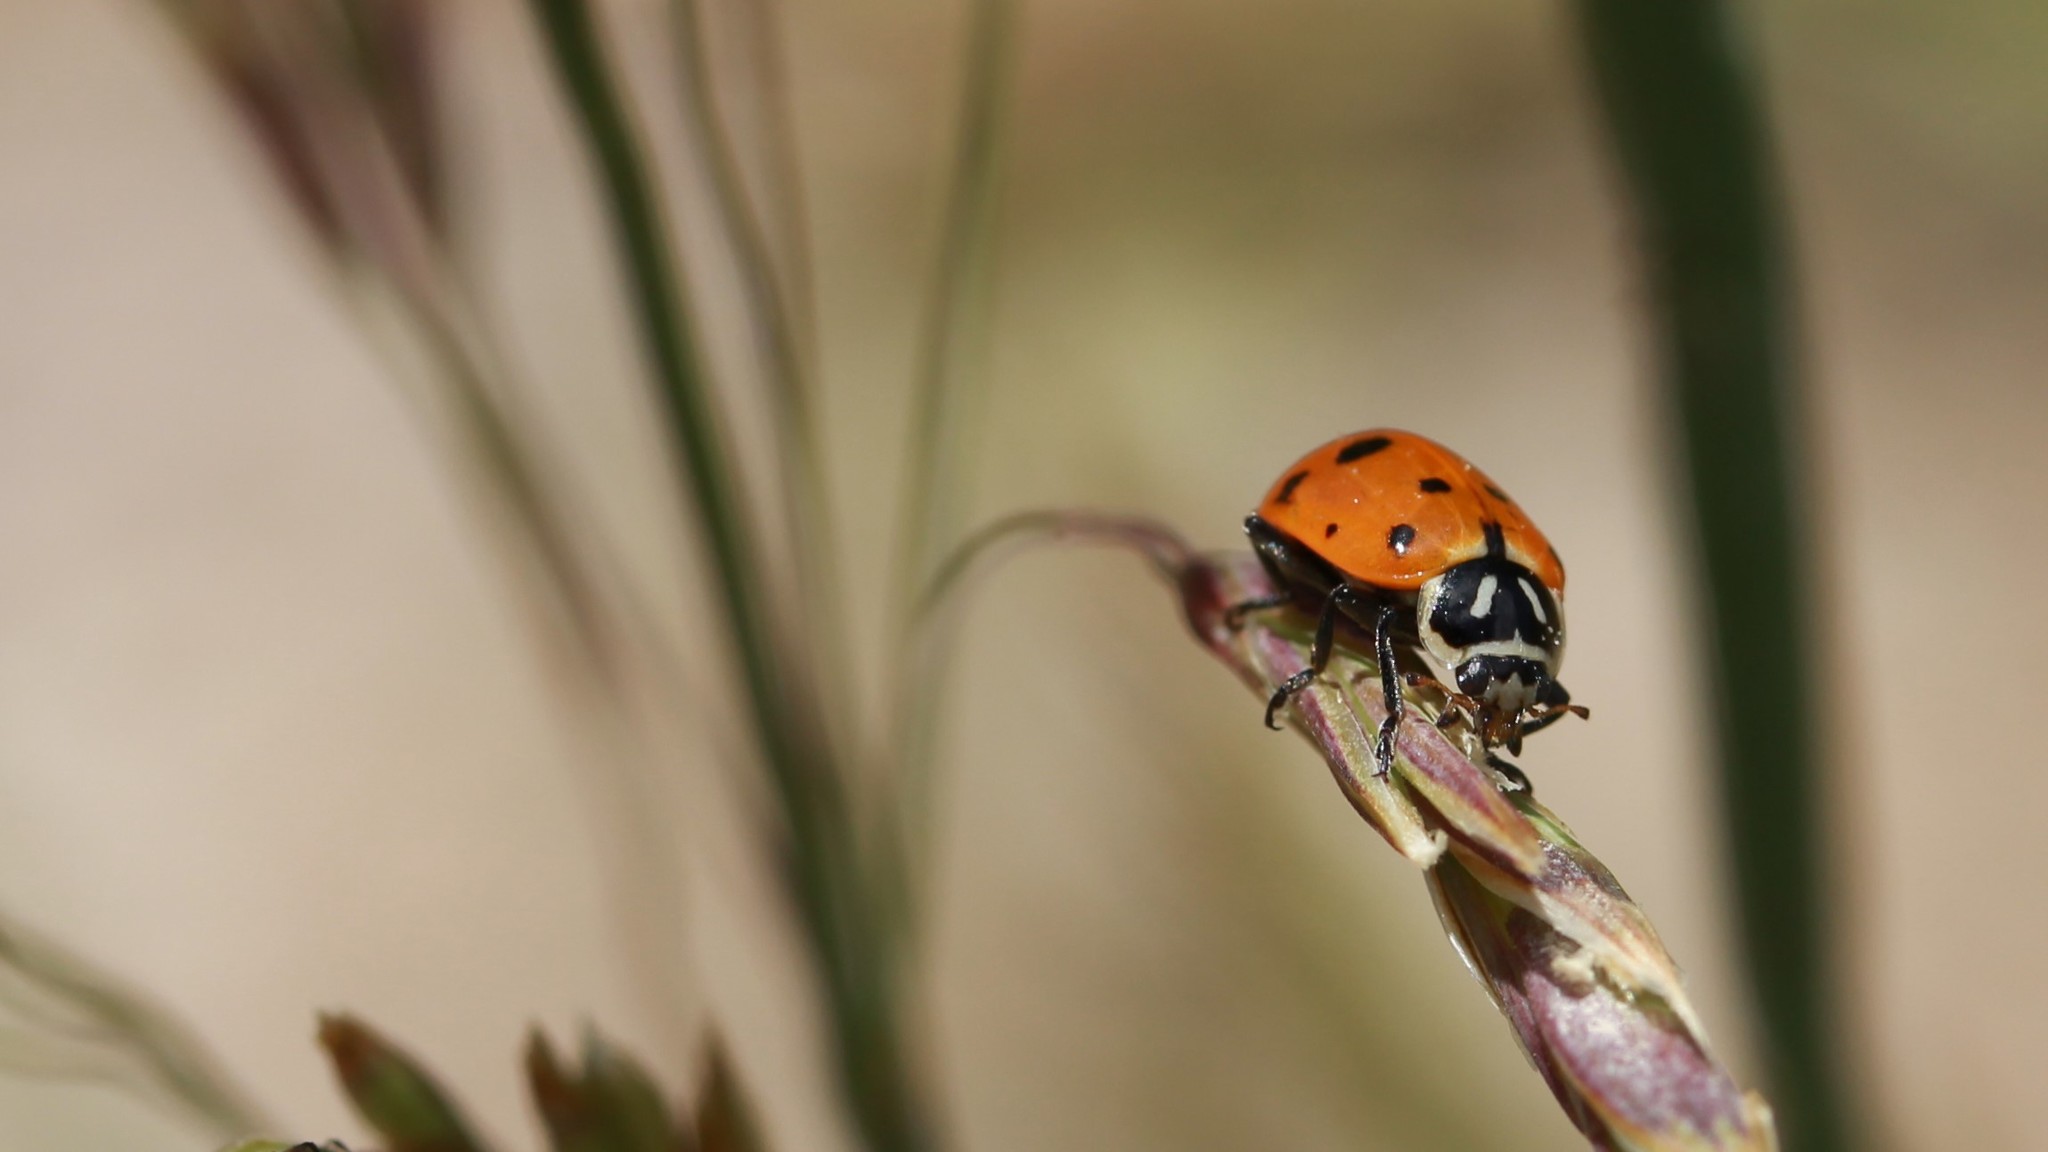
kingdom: Animalia
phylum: Arthropoda
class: Insecta
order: Coleoptera
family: Coccinellidae
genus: Hippodamia
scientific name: Hippodamia convergens
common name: Convergent lady beetle
